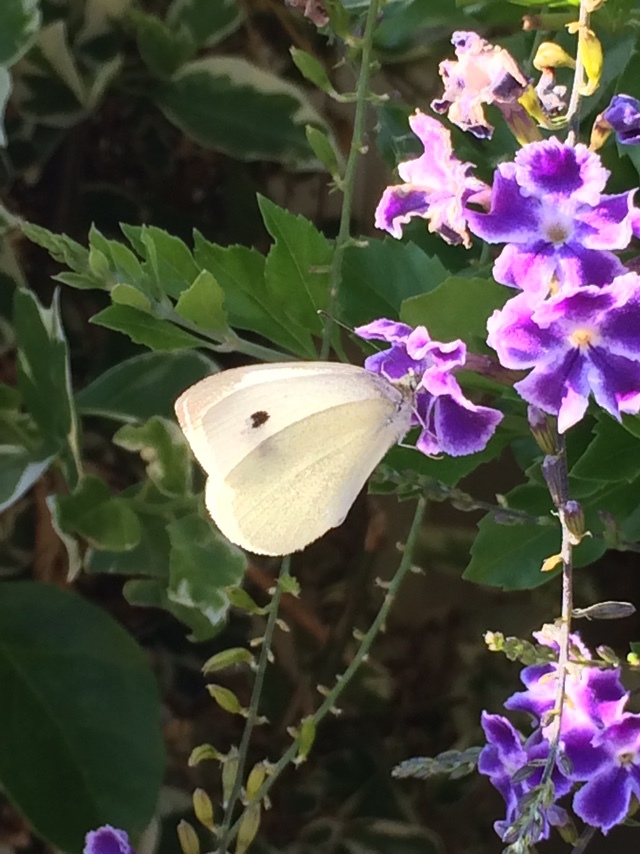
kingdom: Animalia
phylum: Arthropoda
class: Insecta
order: Lepidoptera
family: Pieridae
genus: Pieris
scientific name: Pieris rapae
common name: Small white
